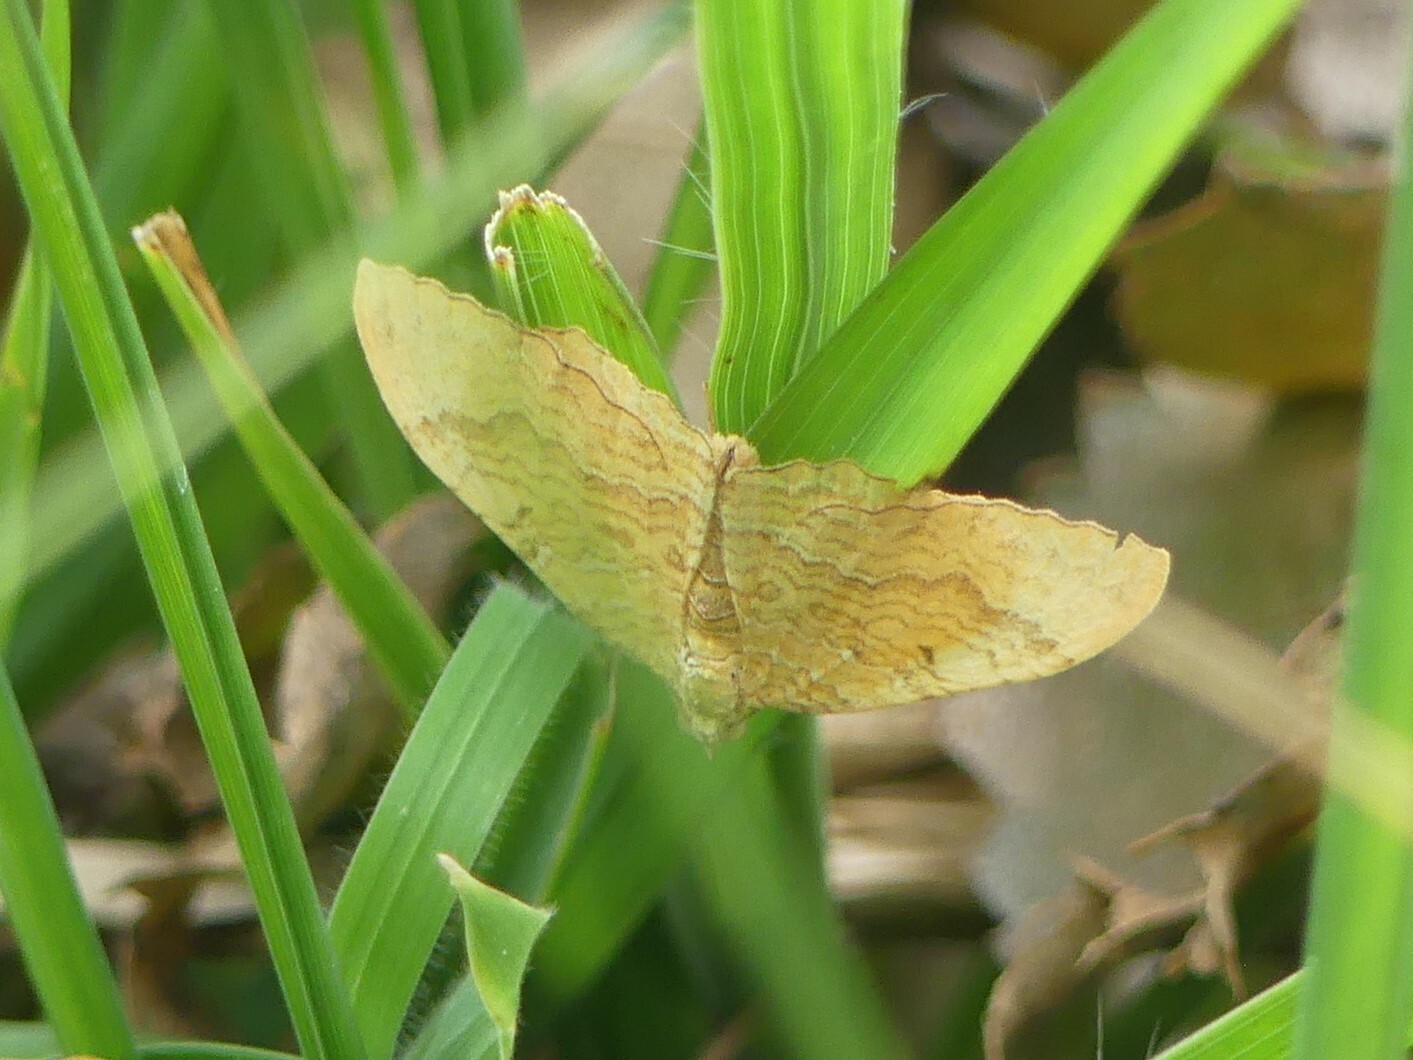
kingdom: Animalia
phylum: Arthropoda
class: Insecta
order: Lepidoptera
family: Geometridae
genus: Camptogramma
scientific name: Camptogramma bilineata
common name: Yellow shell
